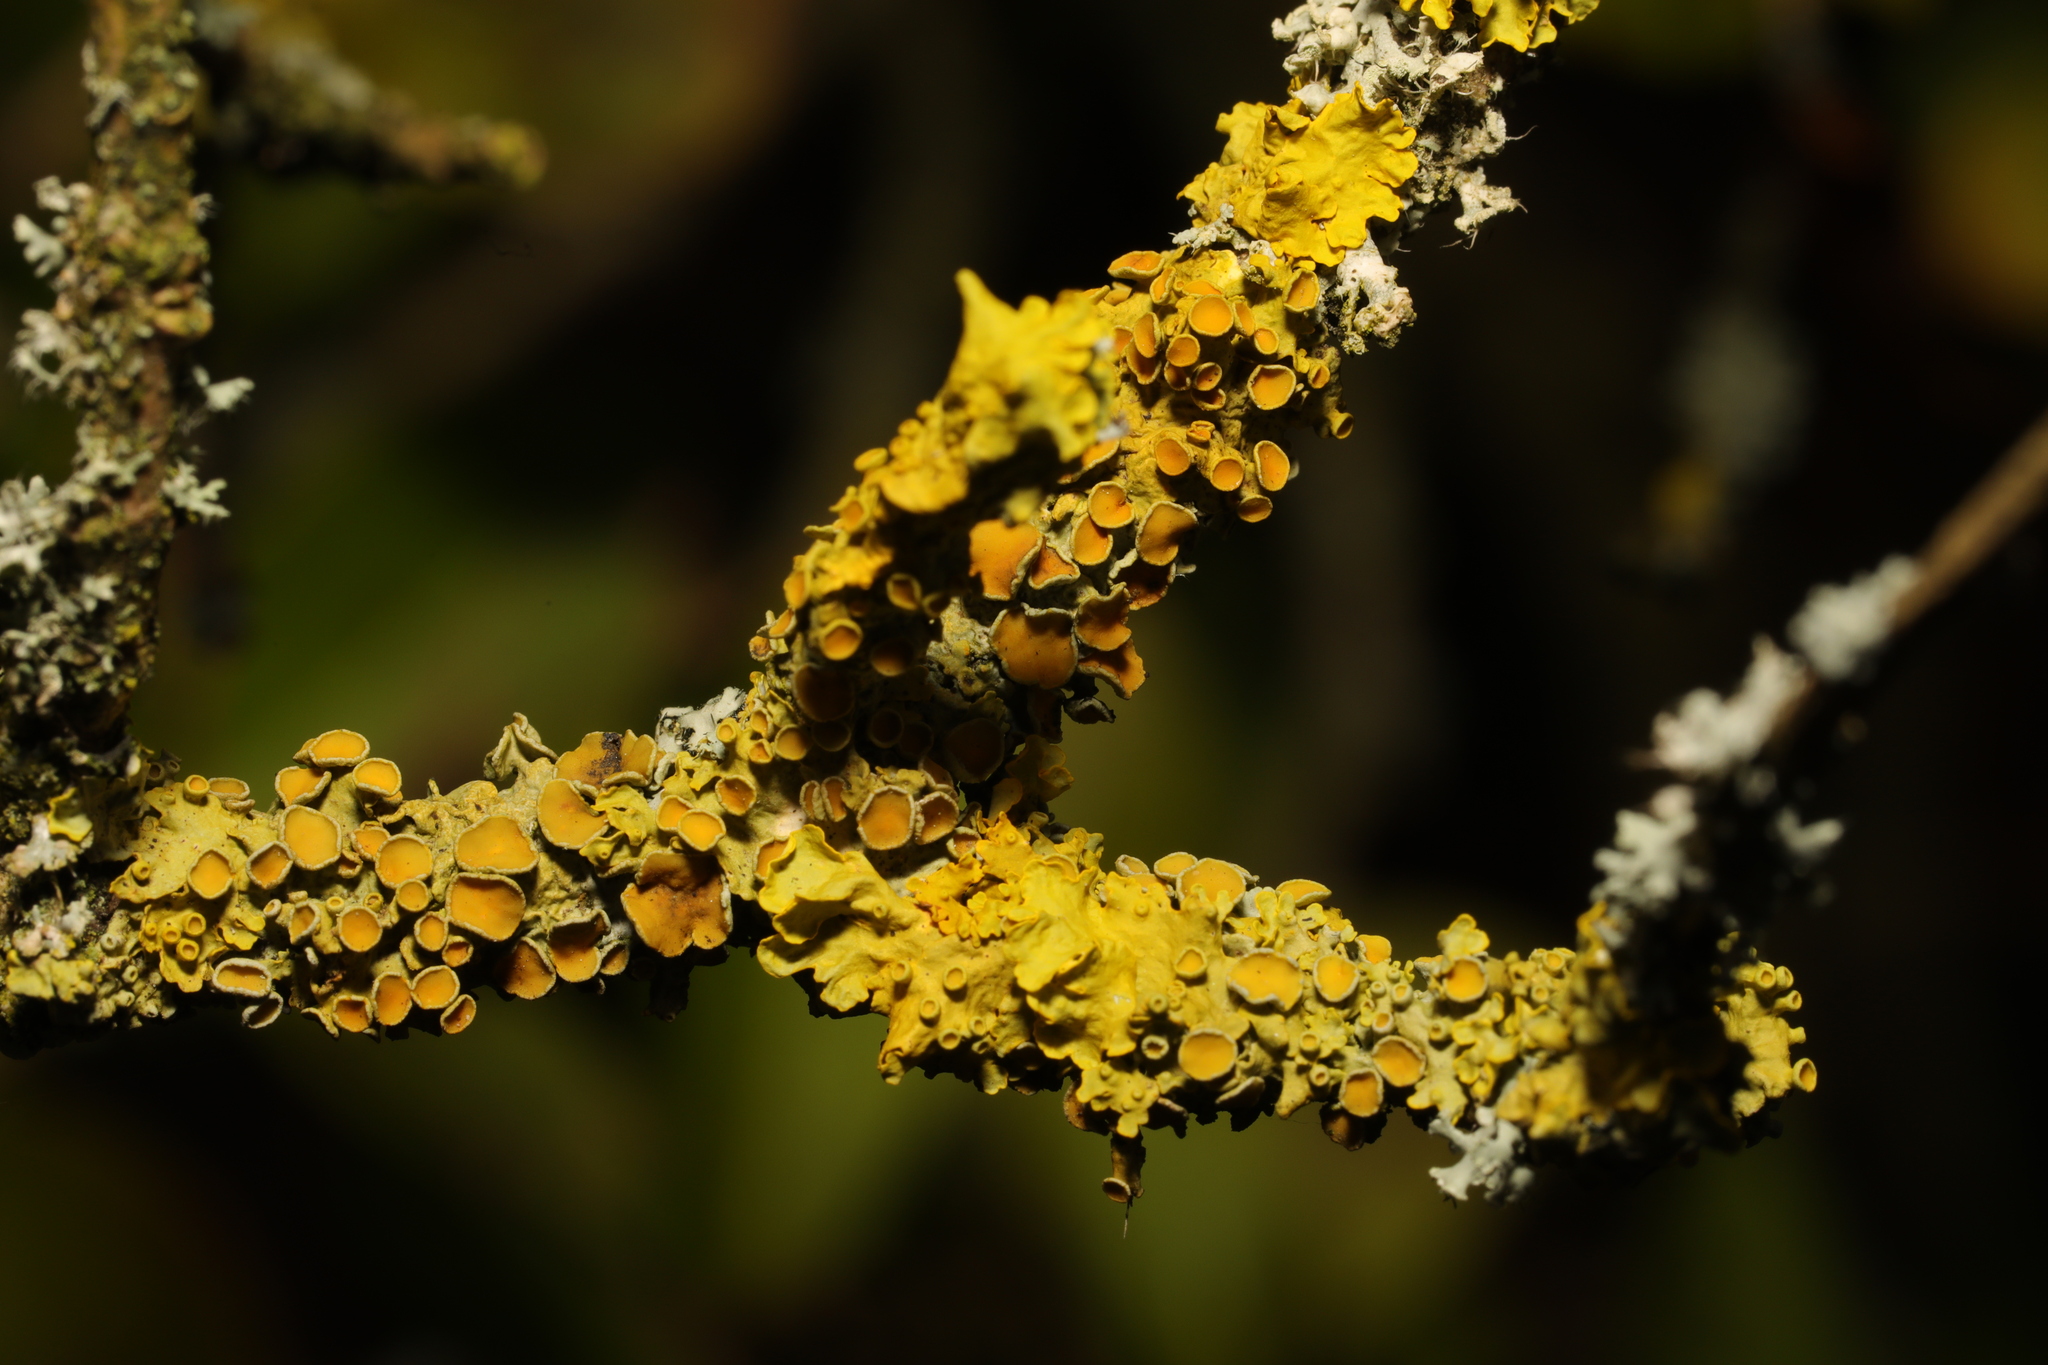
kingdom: Fungi
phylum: Ascomycota
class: Lecanoromycetes
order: Teloschistales
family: Teloschistaceae
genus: Xanthoria
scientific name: Xanthoria parietina
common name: Common orange lichen
